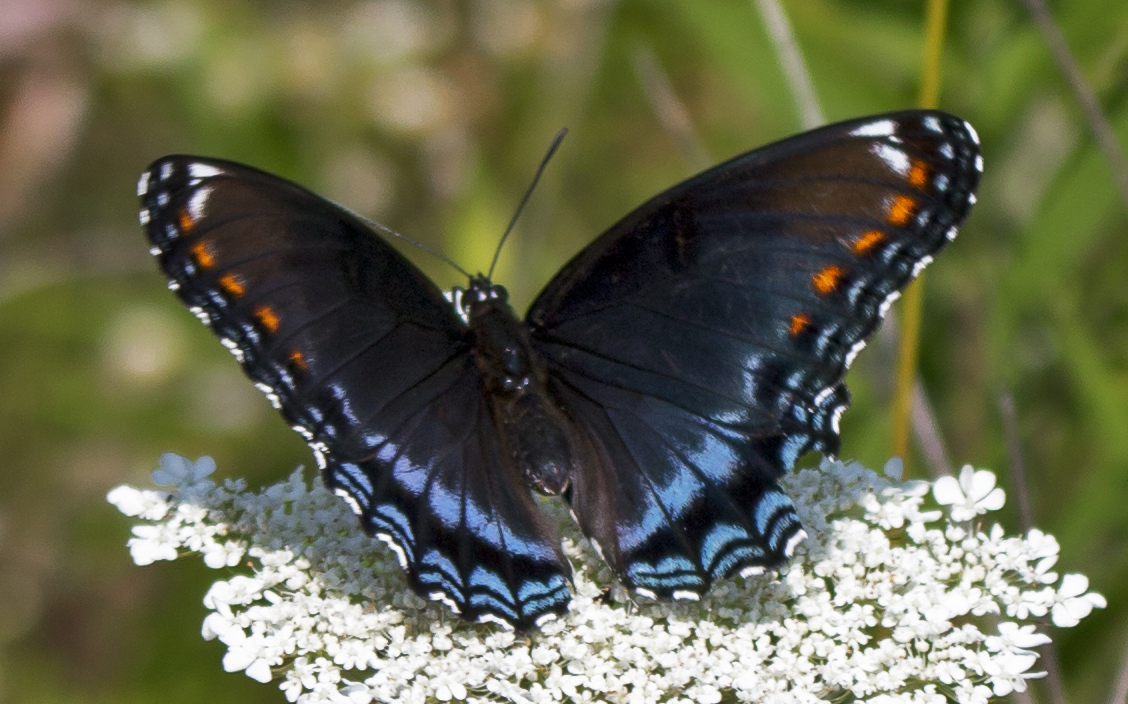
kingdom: Animalia
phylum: Arthropoda
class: Insecta
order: Lepidoptera
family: Nymphalidae
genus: Limenitis
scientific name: Limenitis astyanax
